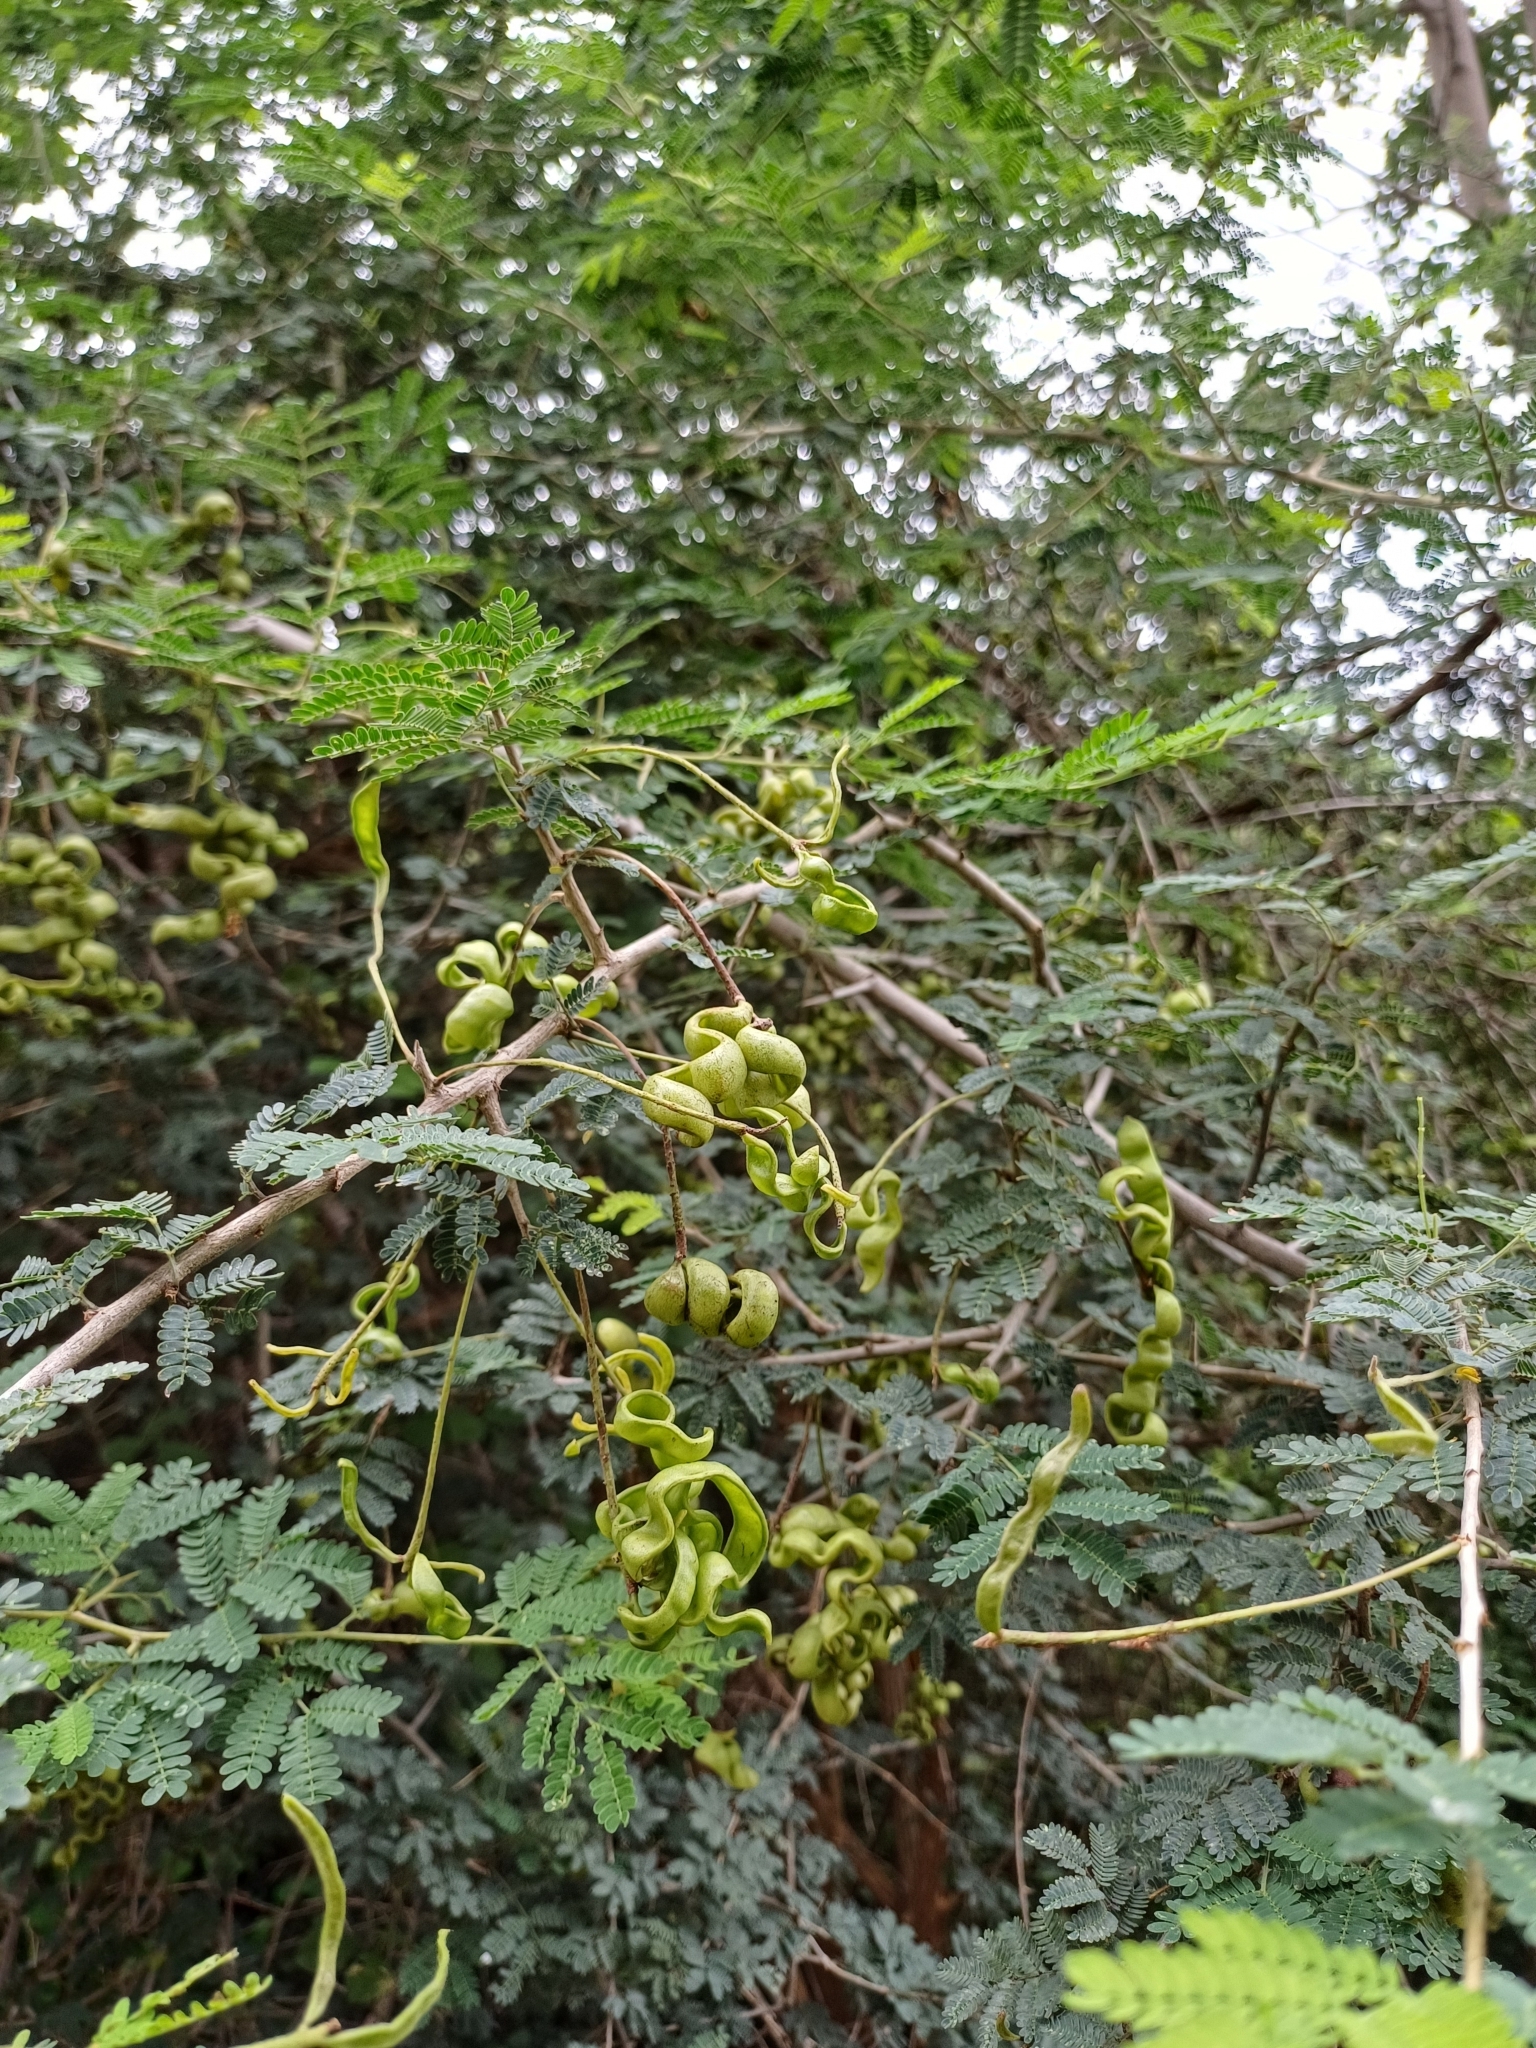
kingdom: Plantae
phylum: Tracheophyta
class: Magnoliopsida
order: Fabales
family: Fabaceae
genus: Dichrostachys
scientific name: Dichrostachys cinerea
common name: Sicklebush
